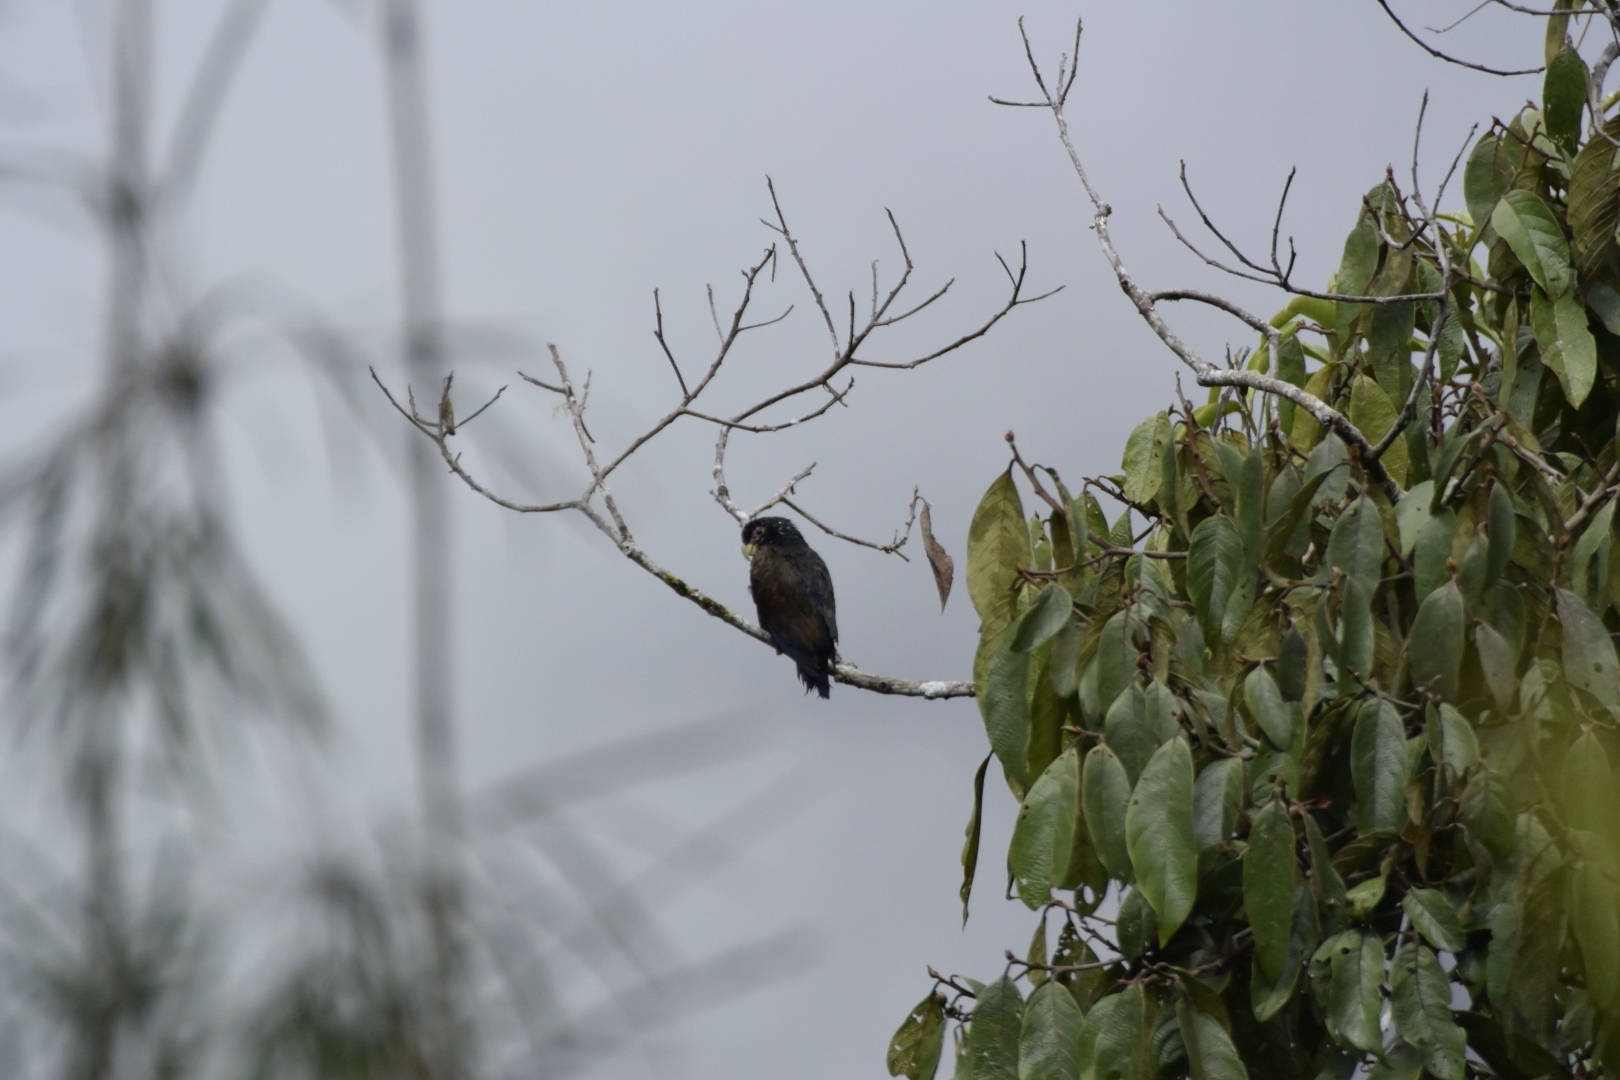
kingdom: Animalia
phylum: Chordata
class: Aves
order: Psittaciformes
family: Psittacidae
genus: Pionus
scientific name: Pionus chalcopterus
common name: Bronze-winged parrot
